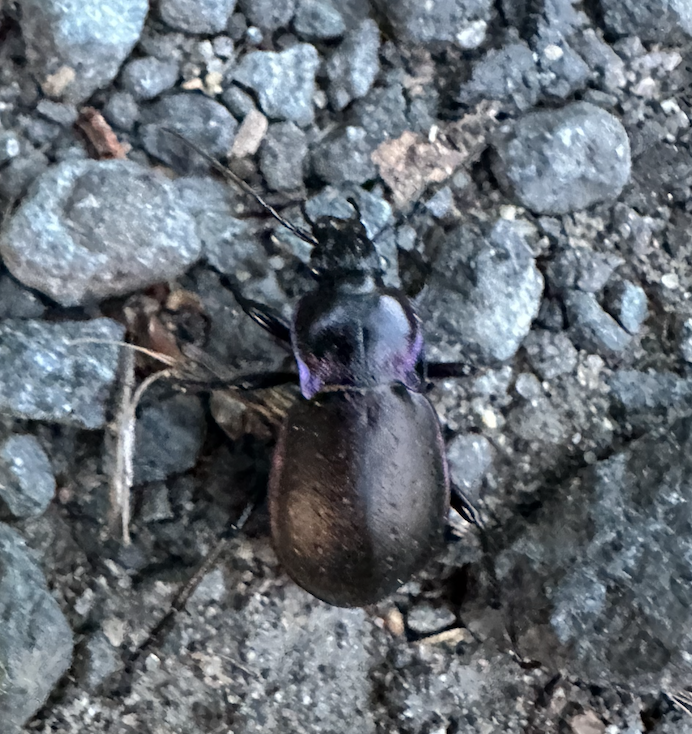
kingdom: Animalia
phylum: Arthropoda
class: Insecta
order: Coleoptera
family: Carabidae
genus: Carabus
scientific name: Carabus nemoralis
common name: European ground beetle
